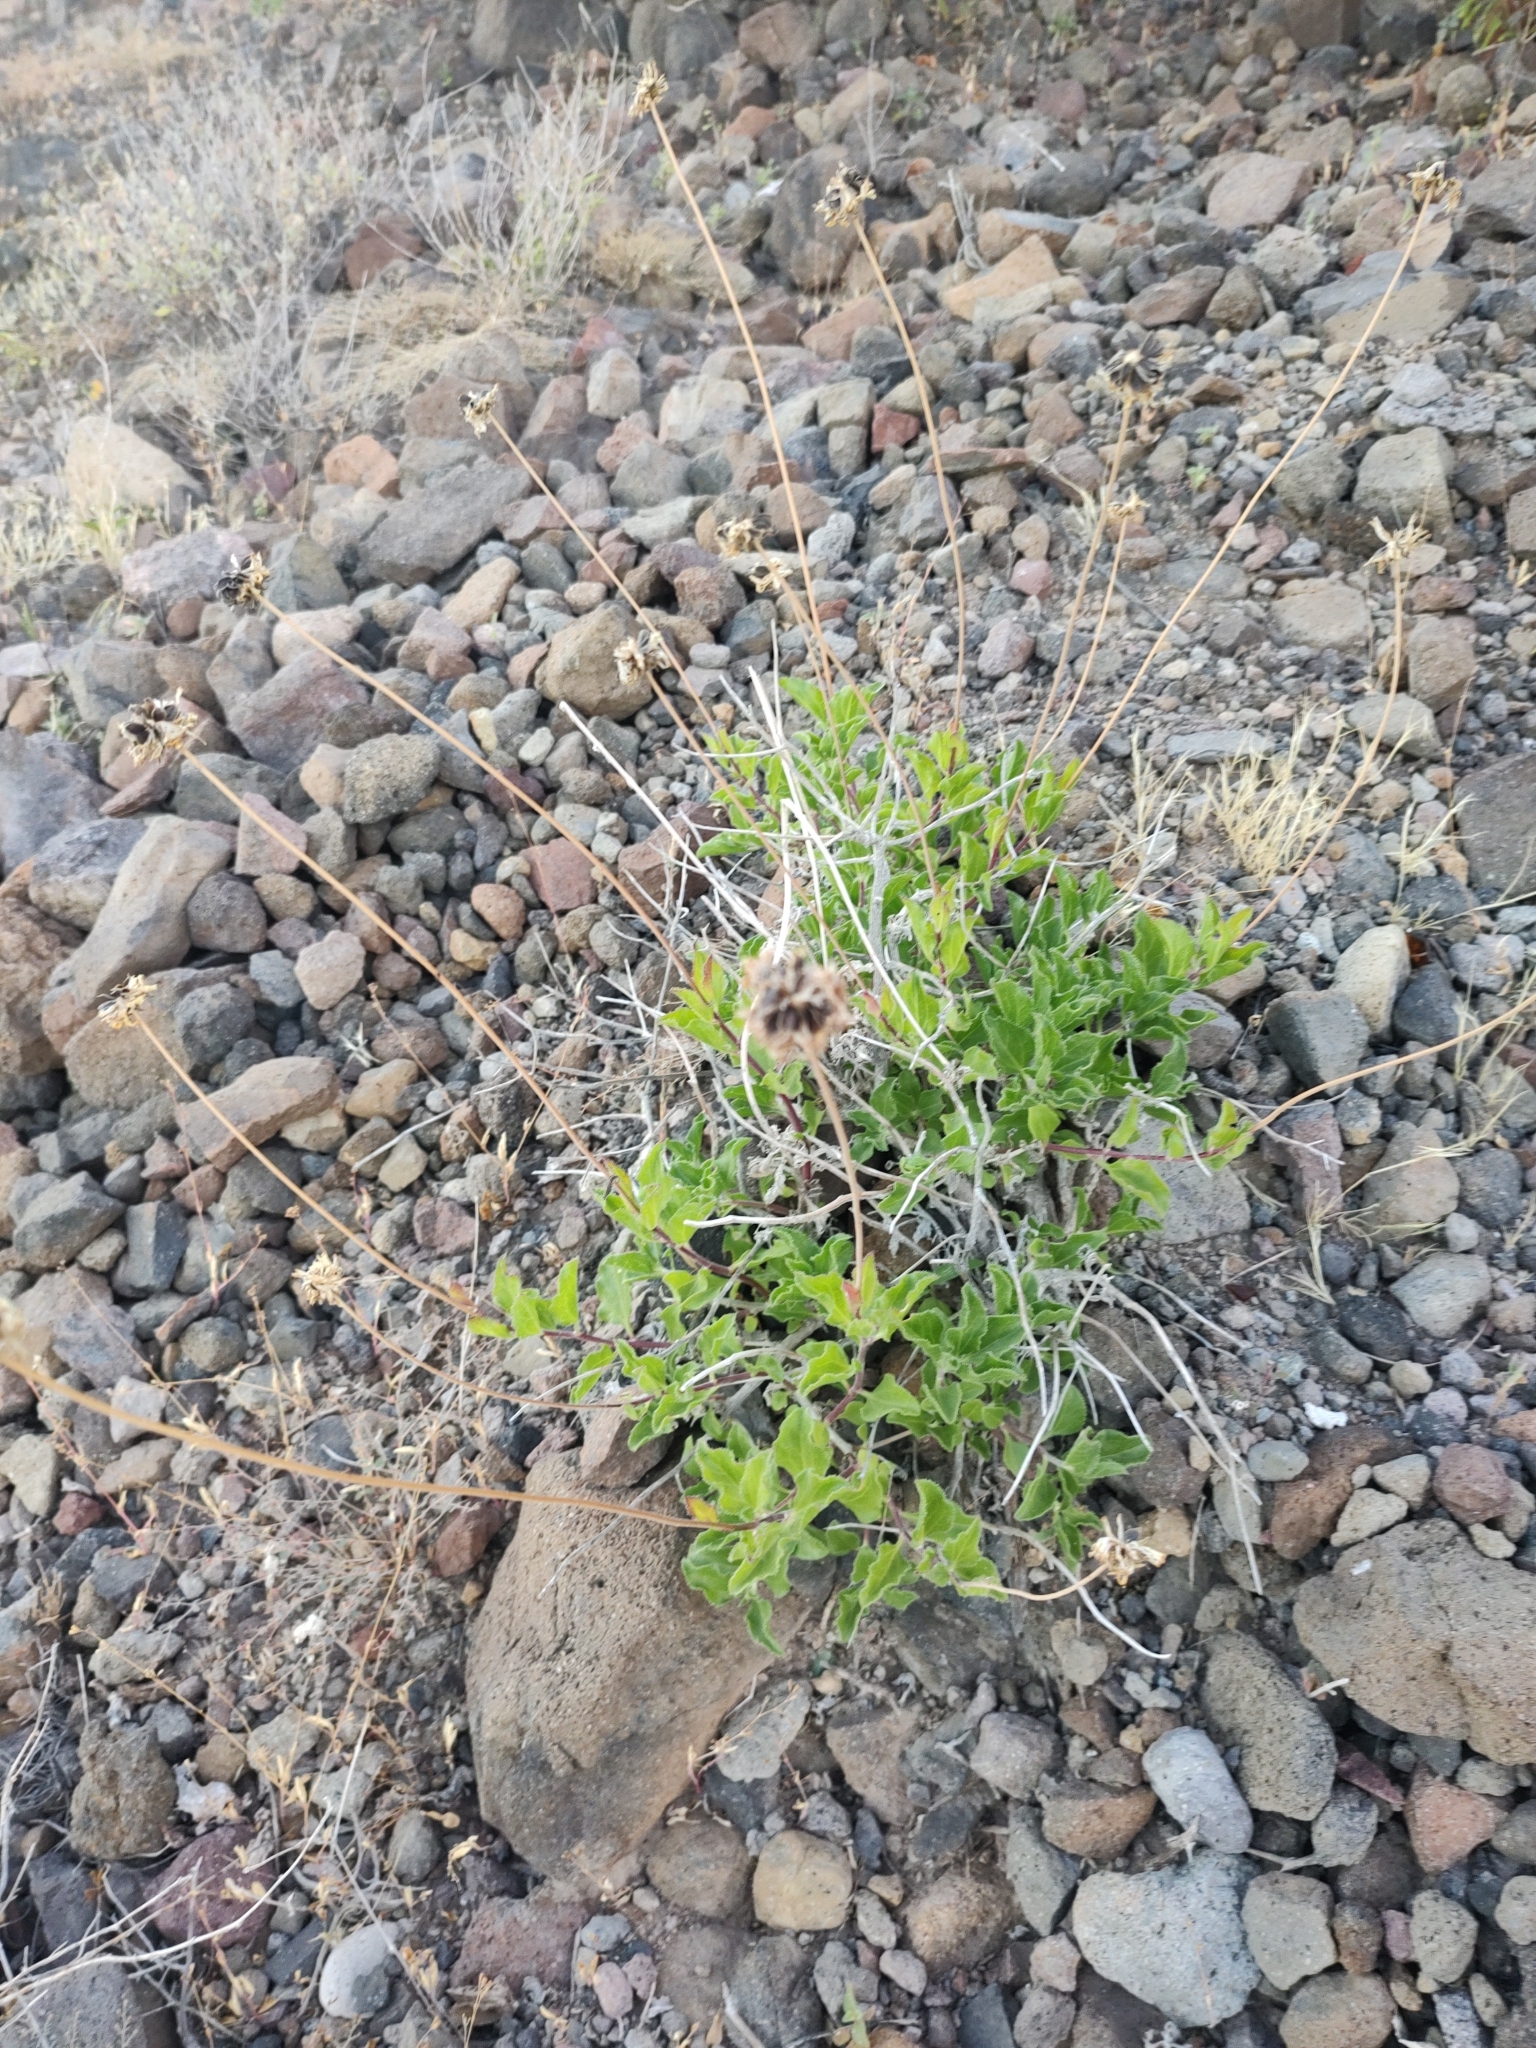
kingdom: Plantae
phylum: Tracheophyta
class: Magnoliopsida
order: Asterales
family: Asteraceae
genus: Encelia
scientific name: Encelia balandra
